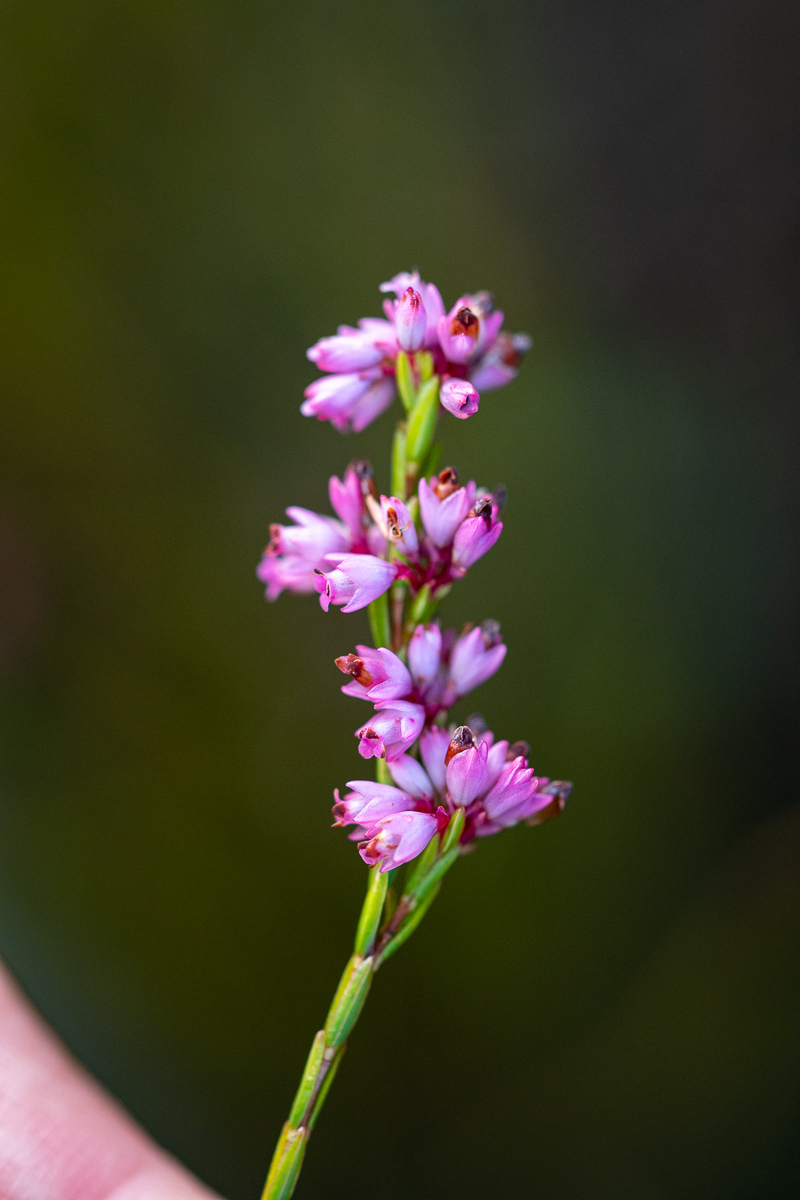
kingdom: Plantae
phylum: Tracheophyta
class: Magnoliopsida
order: Ericales
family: Ericaceae
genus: Erica
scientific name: Erica articularis
